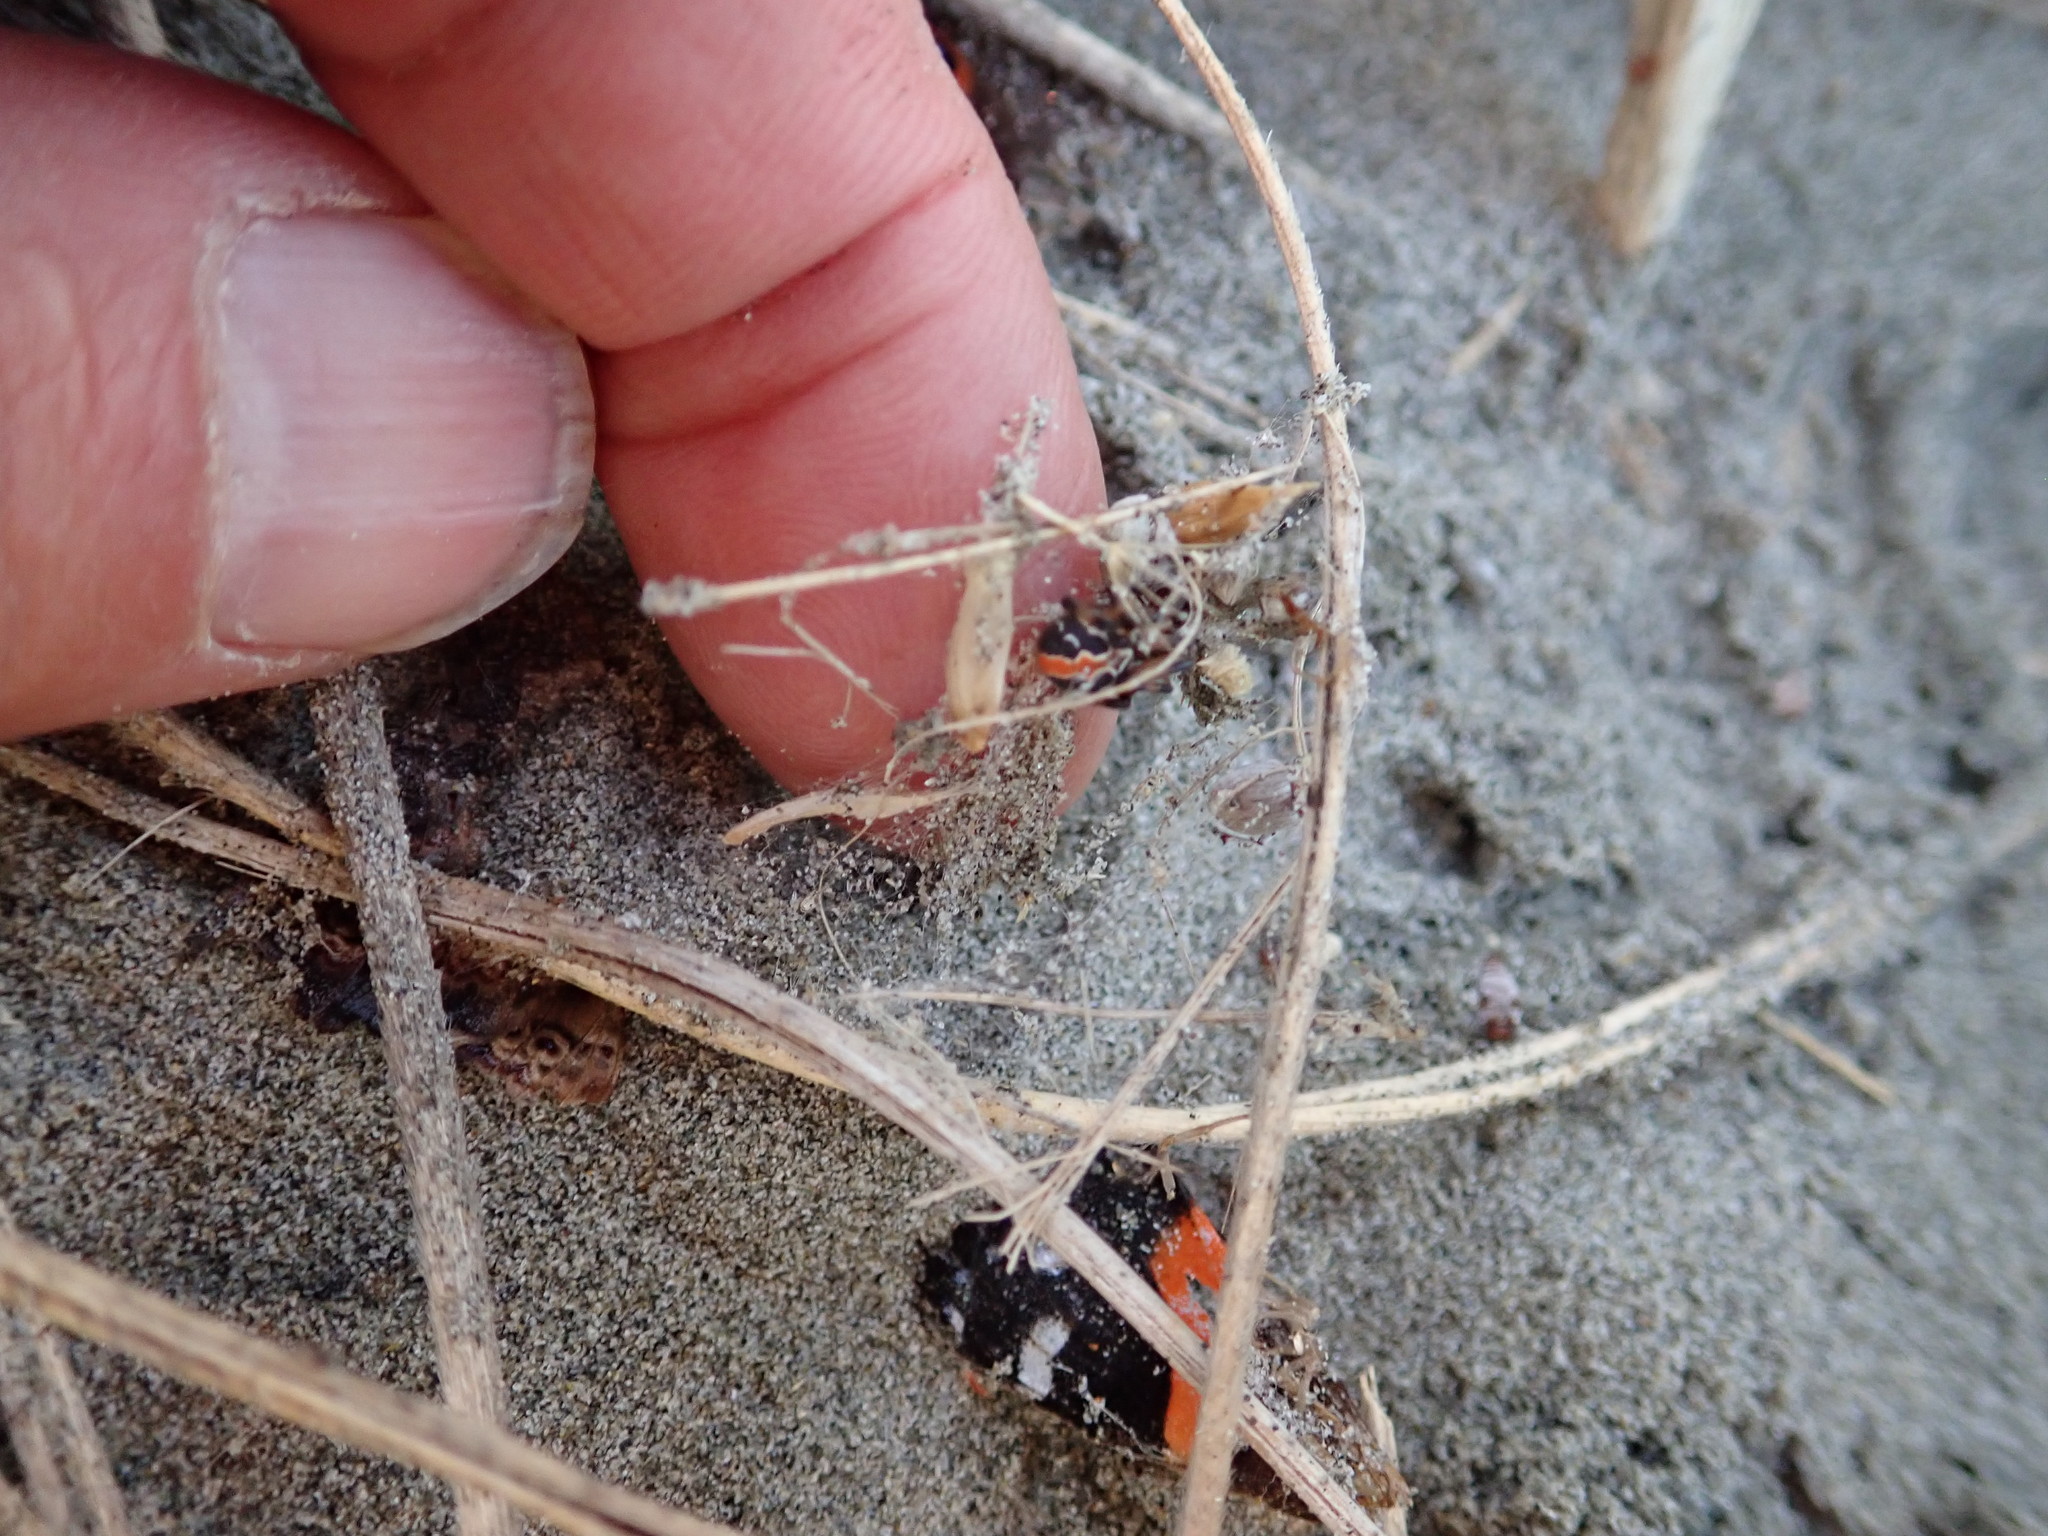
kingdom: Animalia
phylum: Arthropoda
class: Arachnida
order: Araneae
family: Theridiidae
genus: Latrodectus
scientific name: Latrodectus katipo
